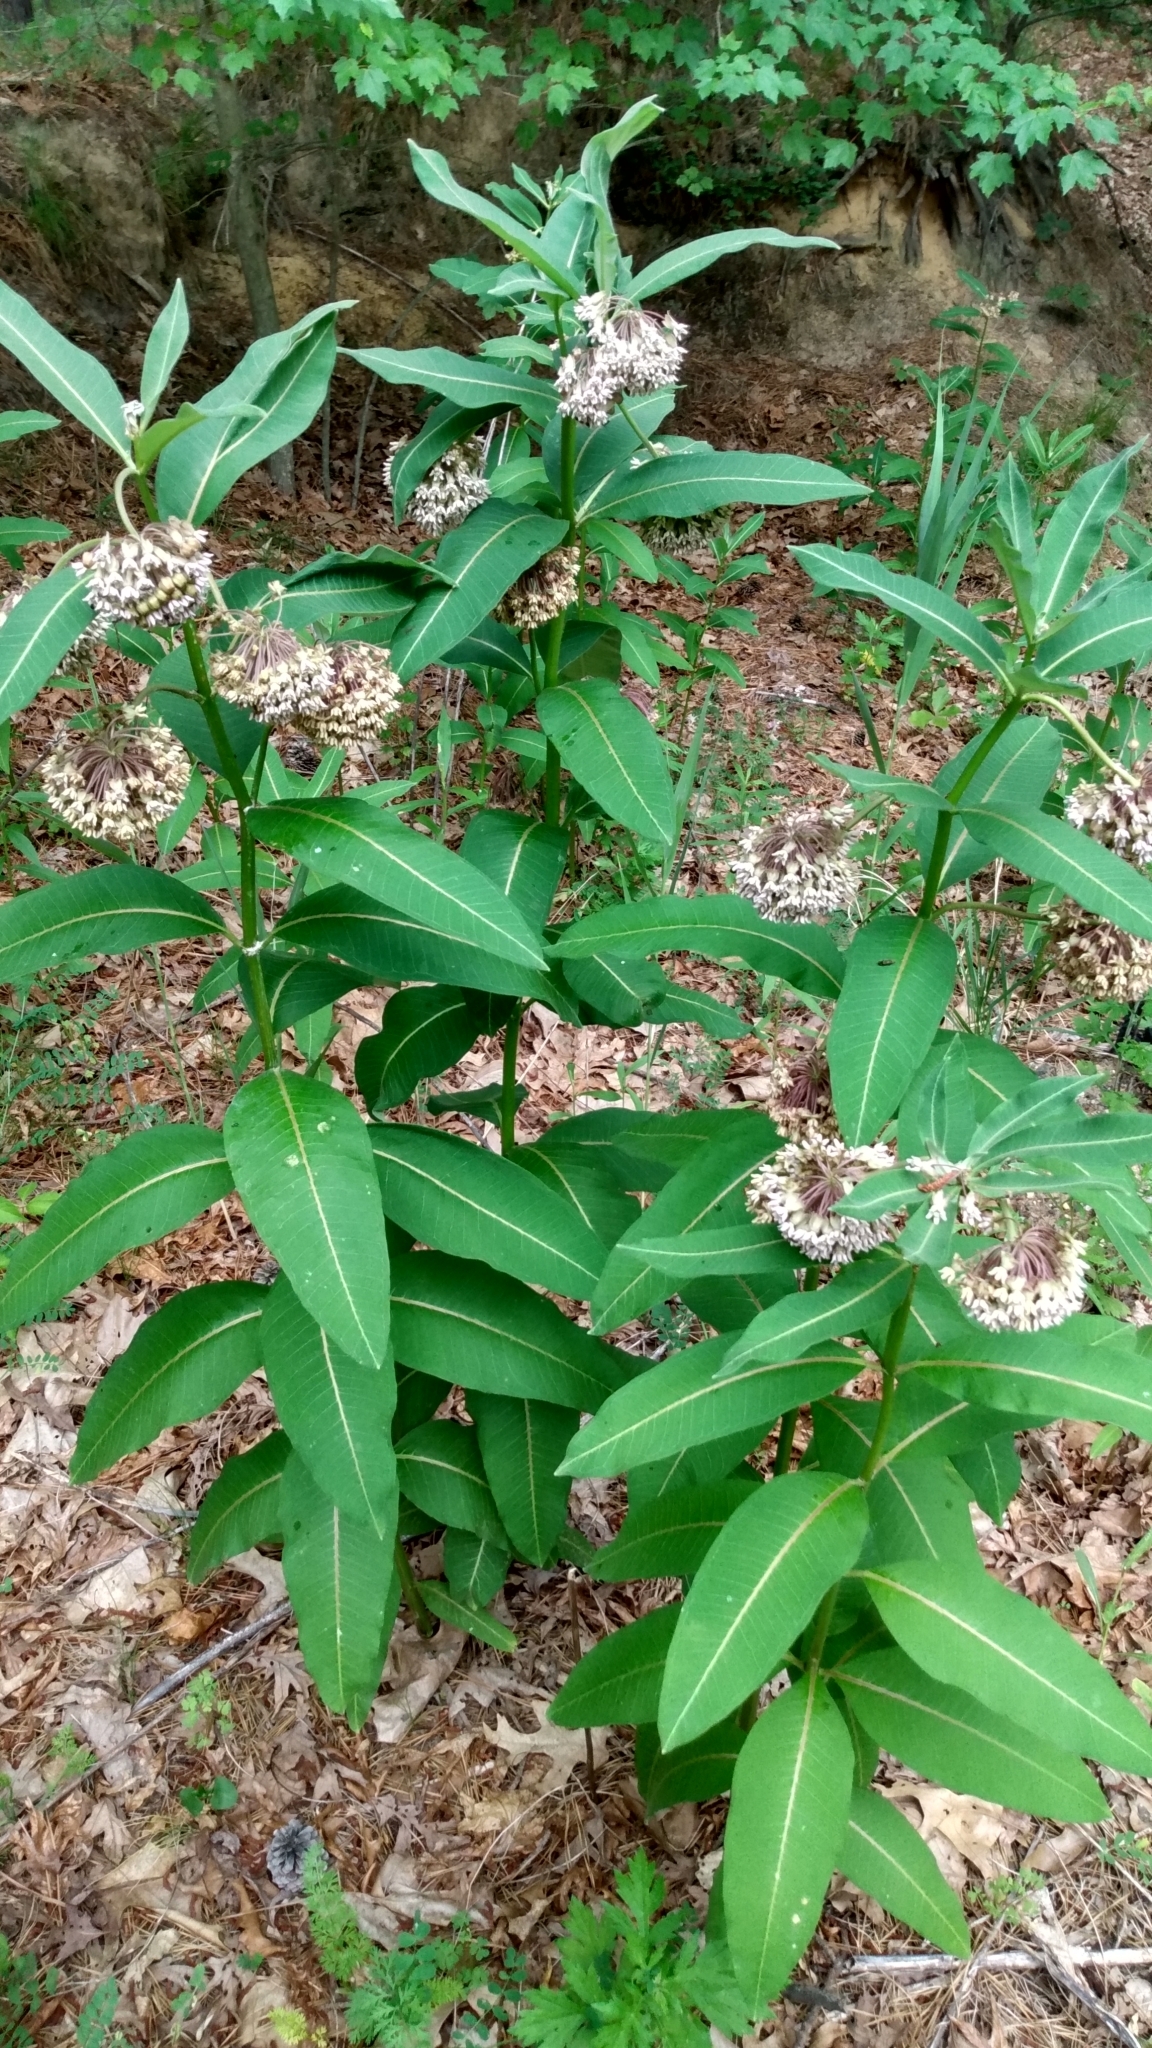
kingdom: Plantae
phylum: Tracheophyta
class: Magnoliopsida
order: Gentianales
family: Apocynaceae
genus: Asclepias
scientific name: Asclepias syriaca
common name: Common milkweed
